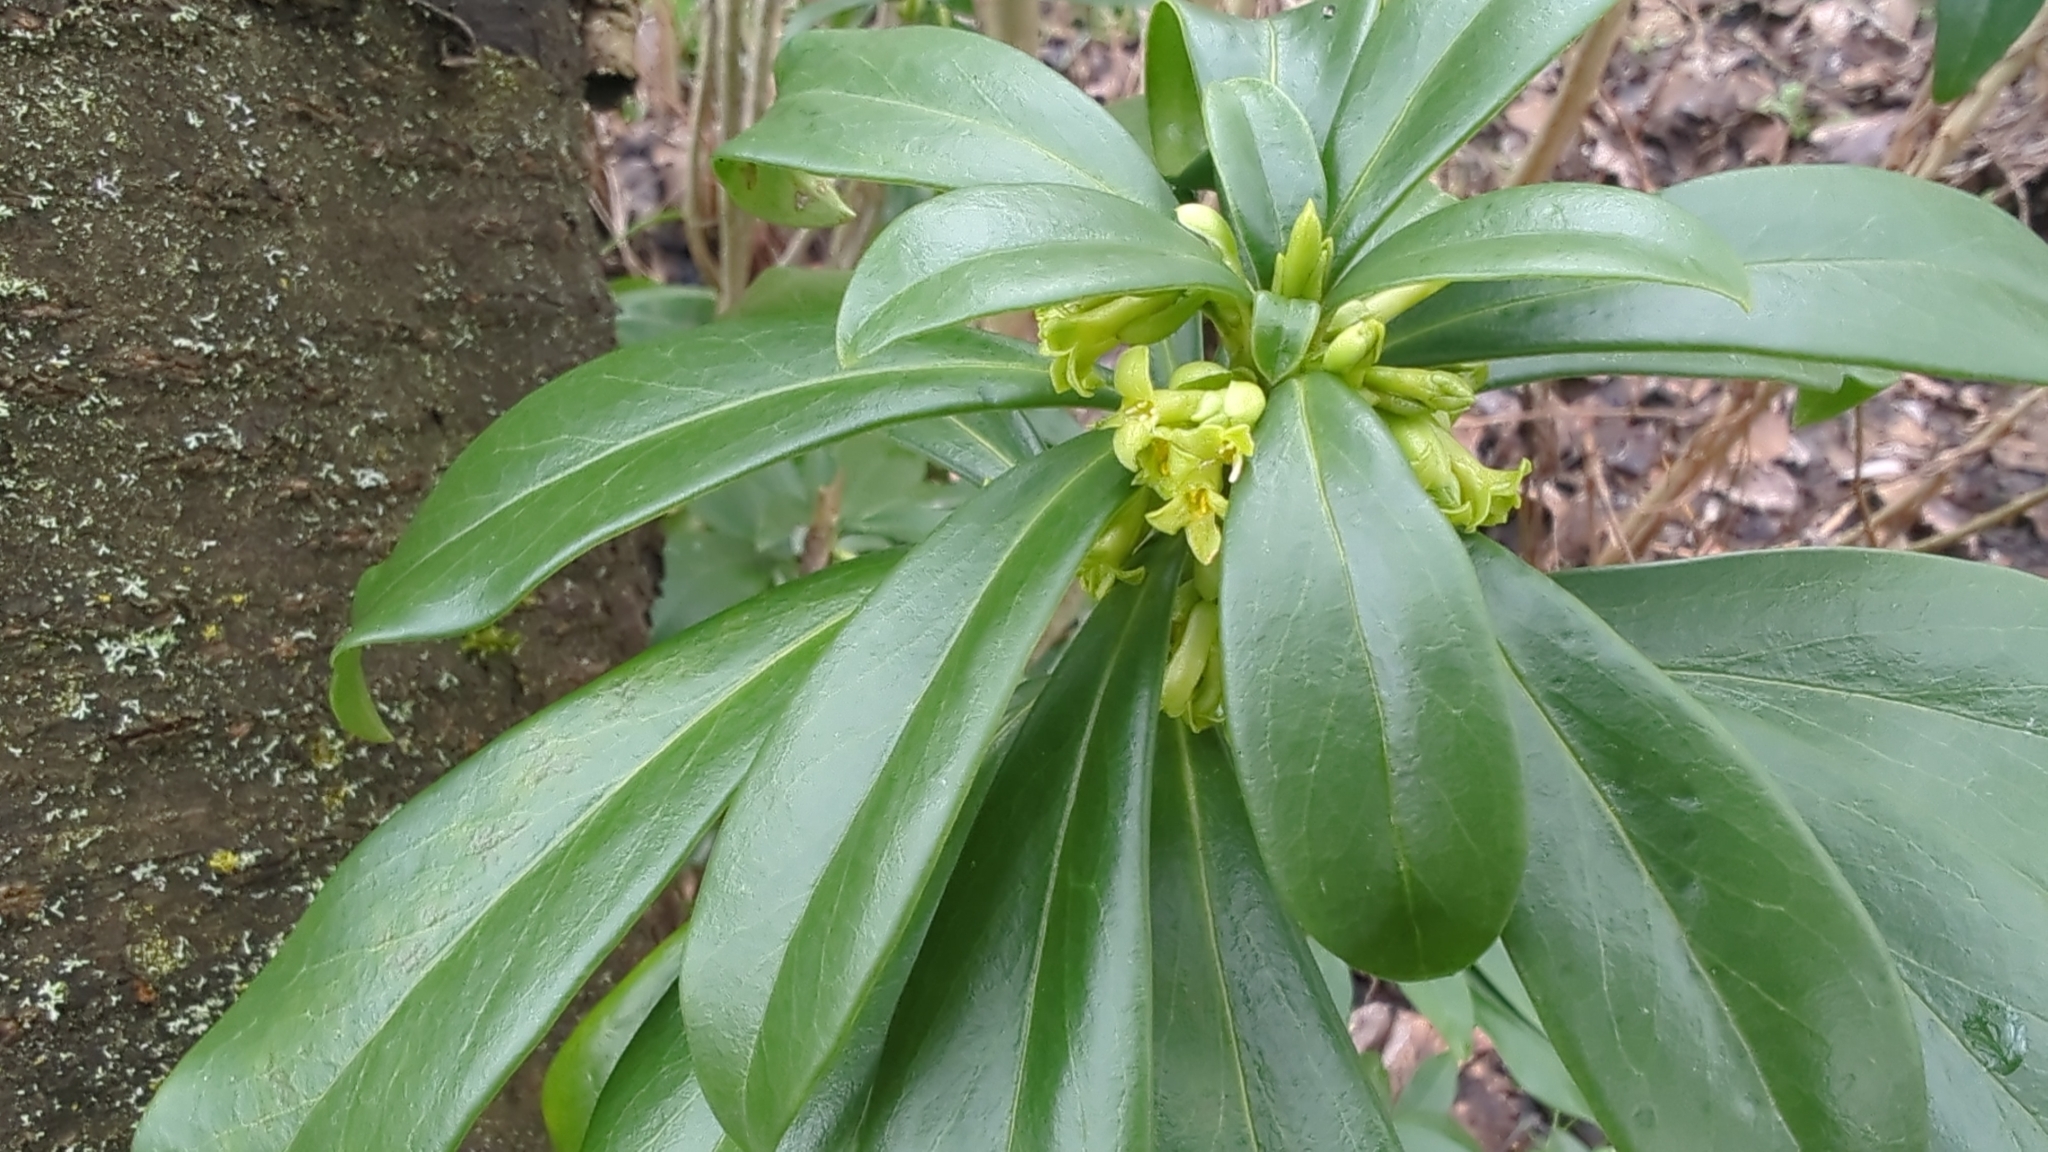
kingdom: Plantae
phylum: Tracheophyta
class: Magnoliopsida
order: Malvales
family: Thymelaeaceae
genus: Daphne
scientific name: Daphne laureola
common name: Spurge-laurel
